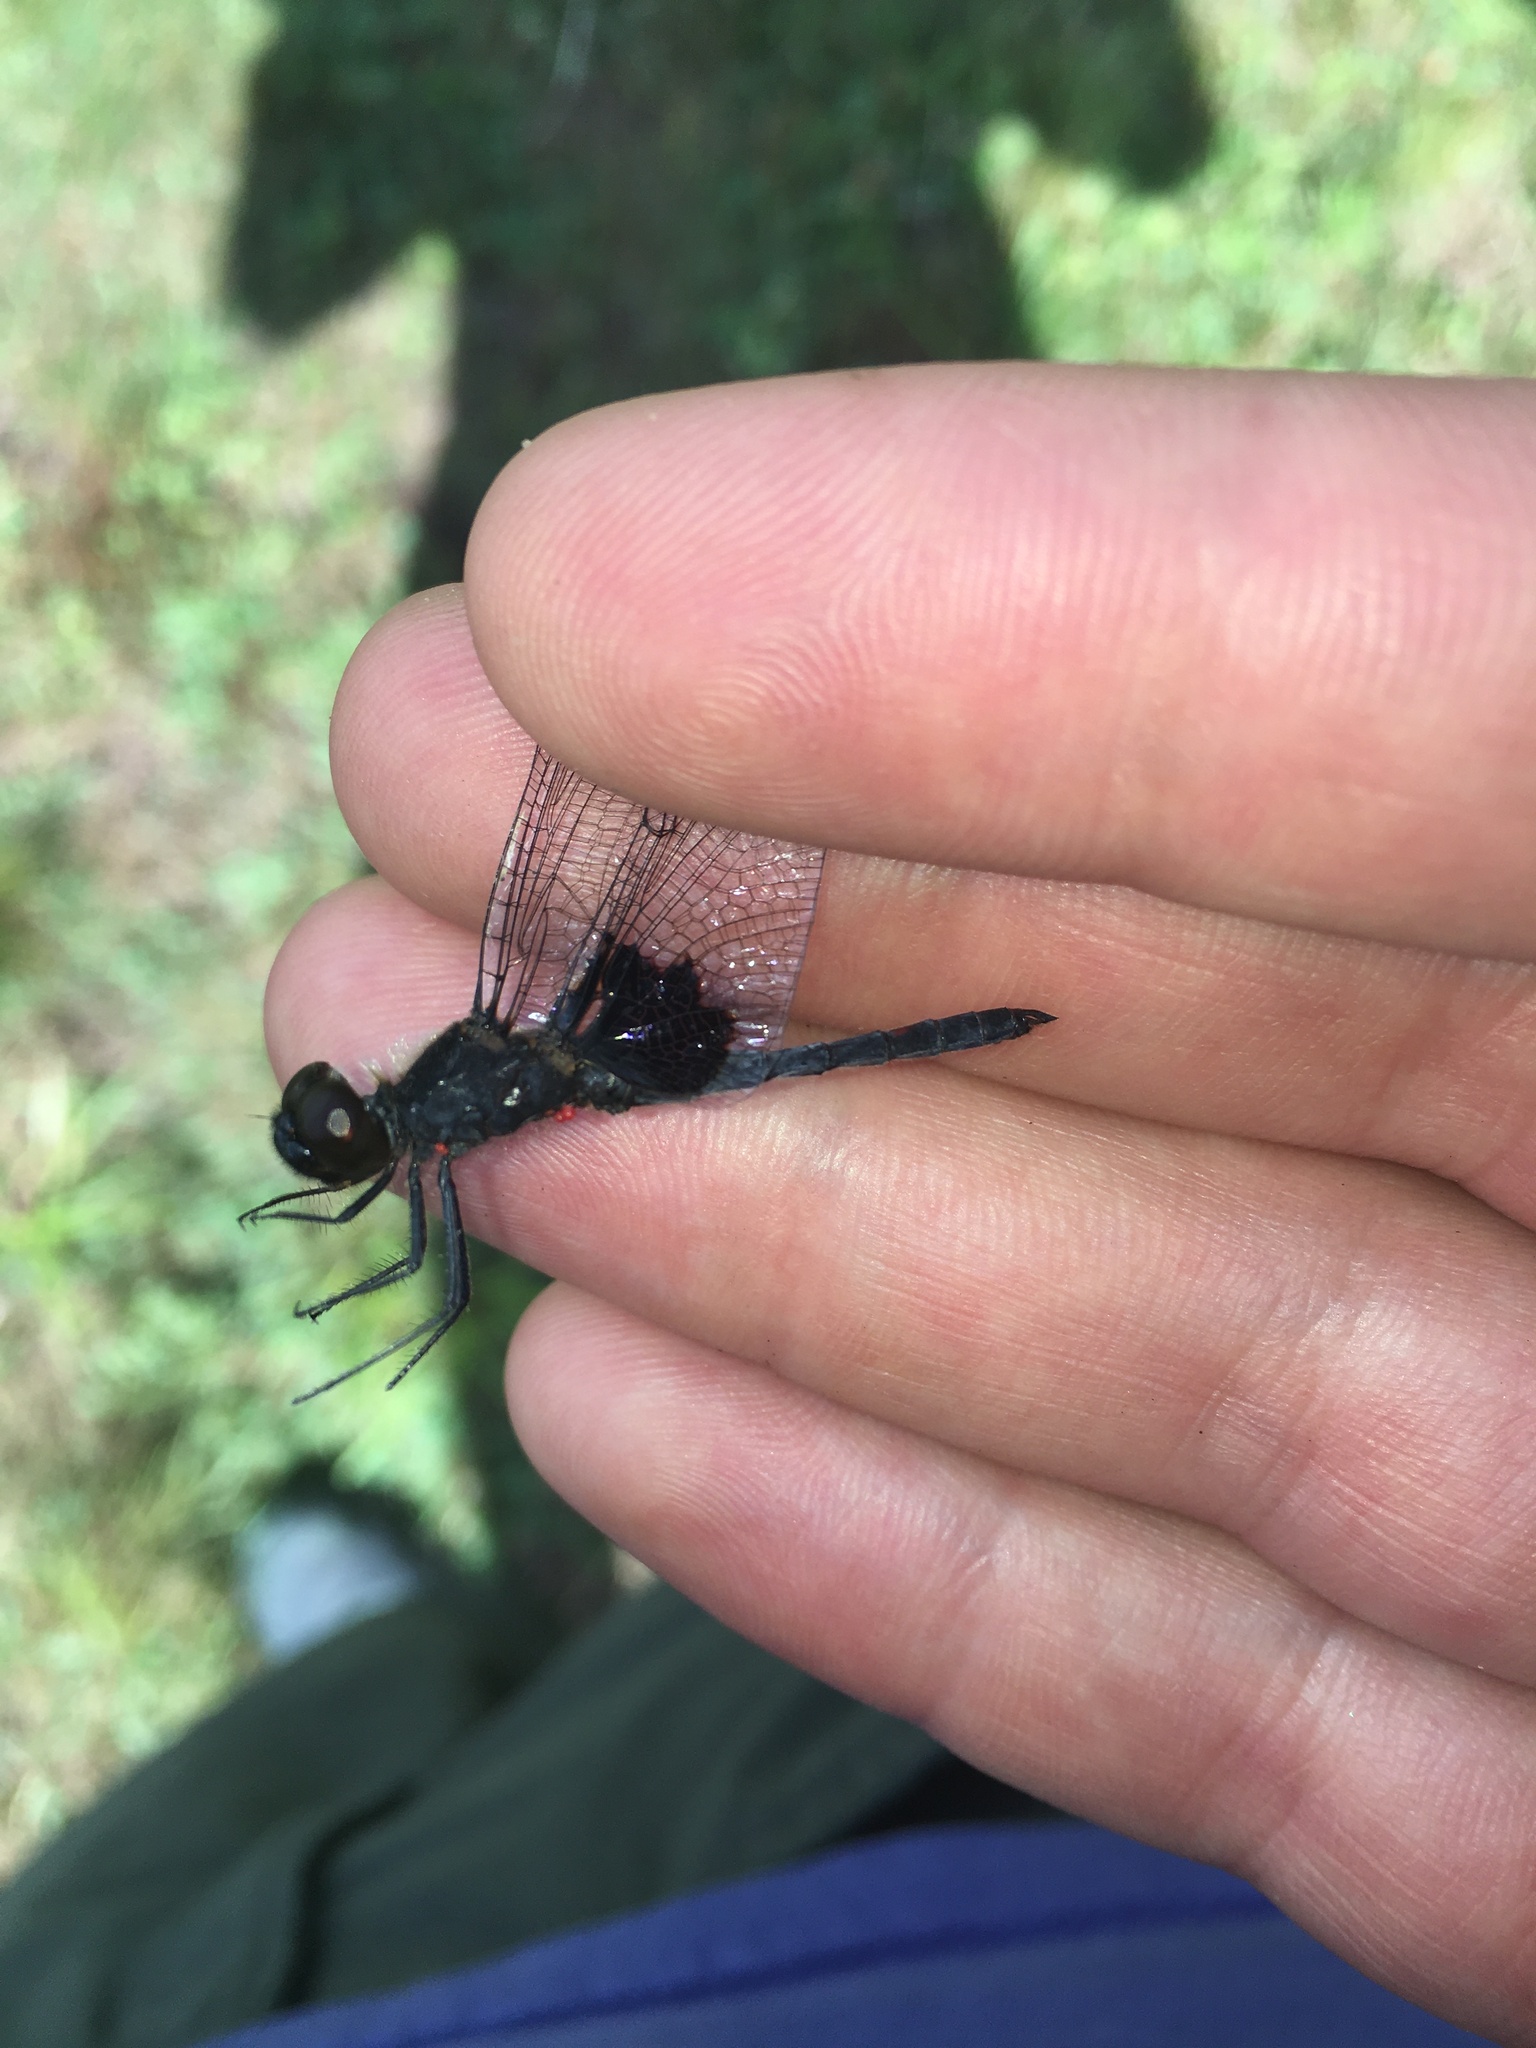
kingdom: Animalia
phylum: Arthropoda
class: Insecta
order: Odonata
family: Libellulidae
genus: Celithemis
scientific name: Celithemis martha
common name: Martha's pennant
